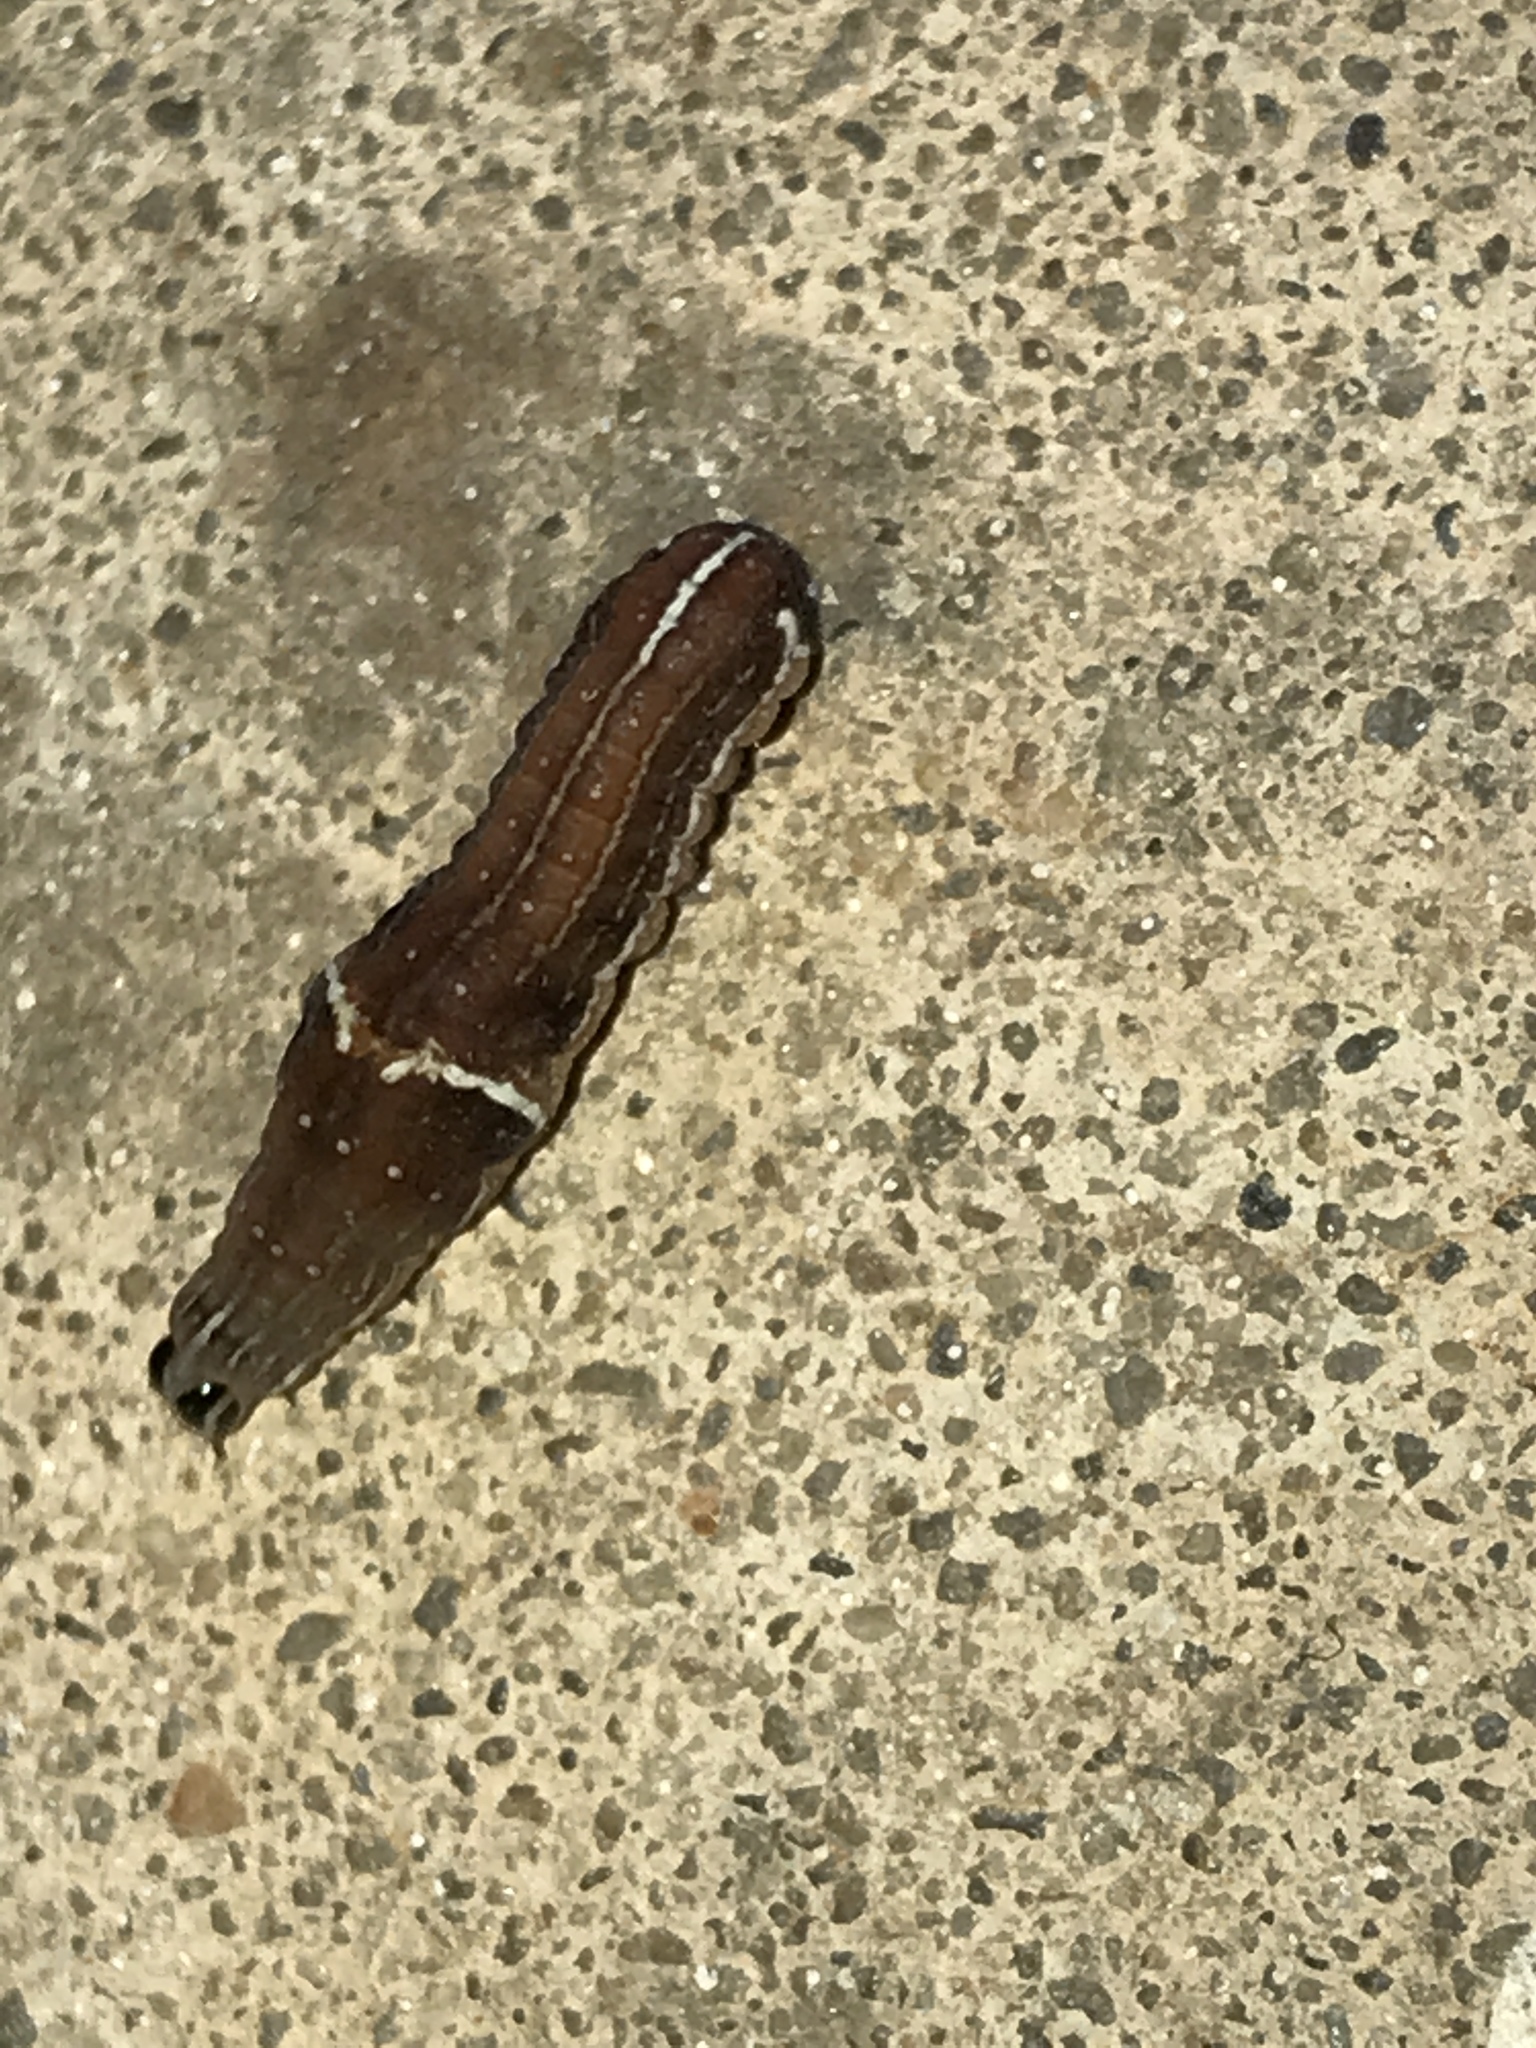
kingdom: Animalia
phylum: Arthropoda
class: Insecta
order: Lepidoptera
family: Noctuidae
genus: Galgula
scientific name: Galgula partita
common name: Wedgeling
